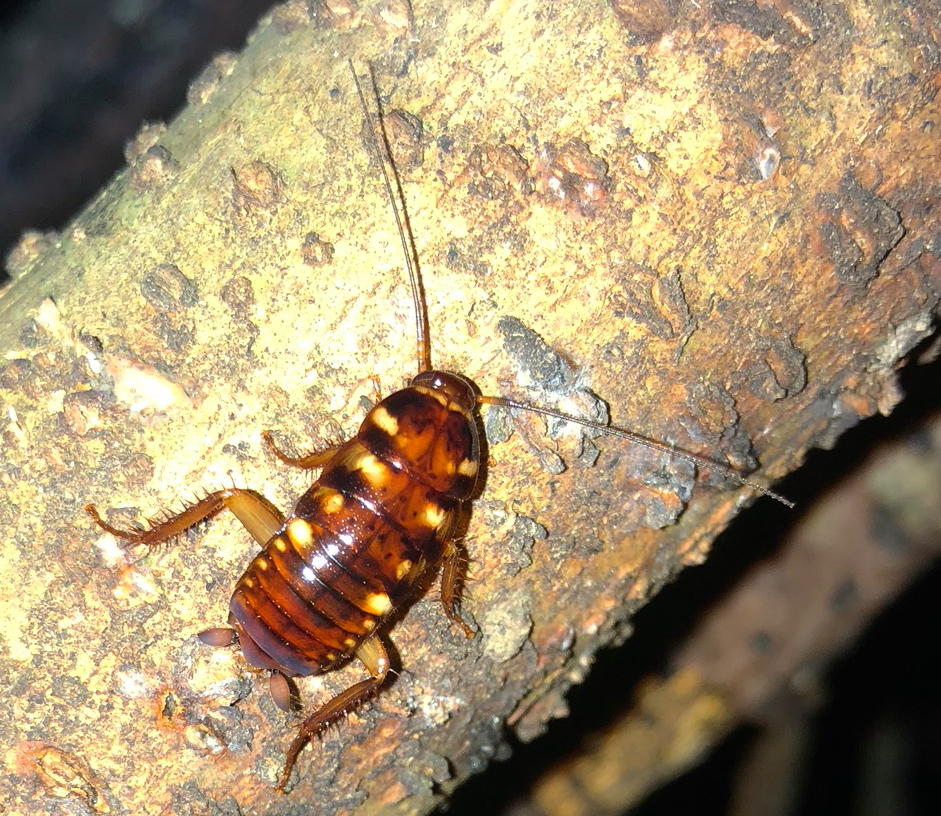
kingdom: Animalia
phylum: Arthropoda
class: Insecta
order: Blattodea
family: Blattidae
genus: Periplaneta
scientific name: Periplaneta australasiae
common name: Australian cockroach
